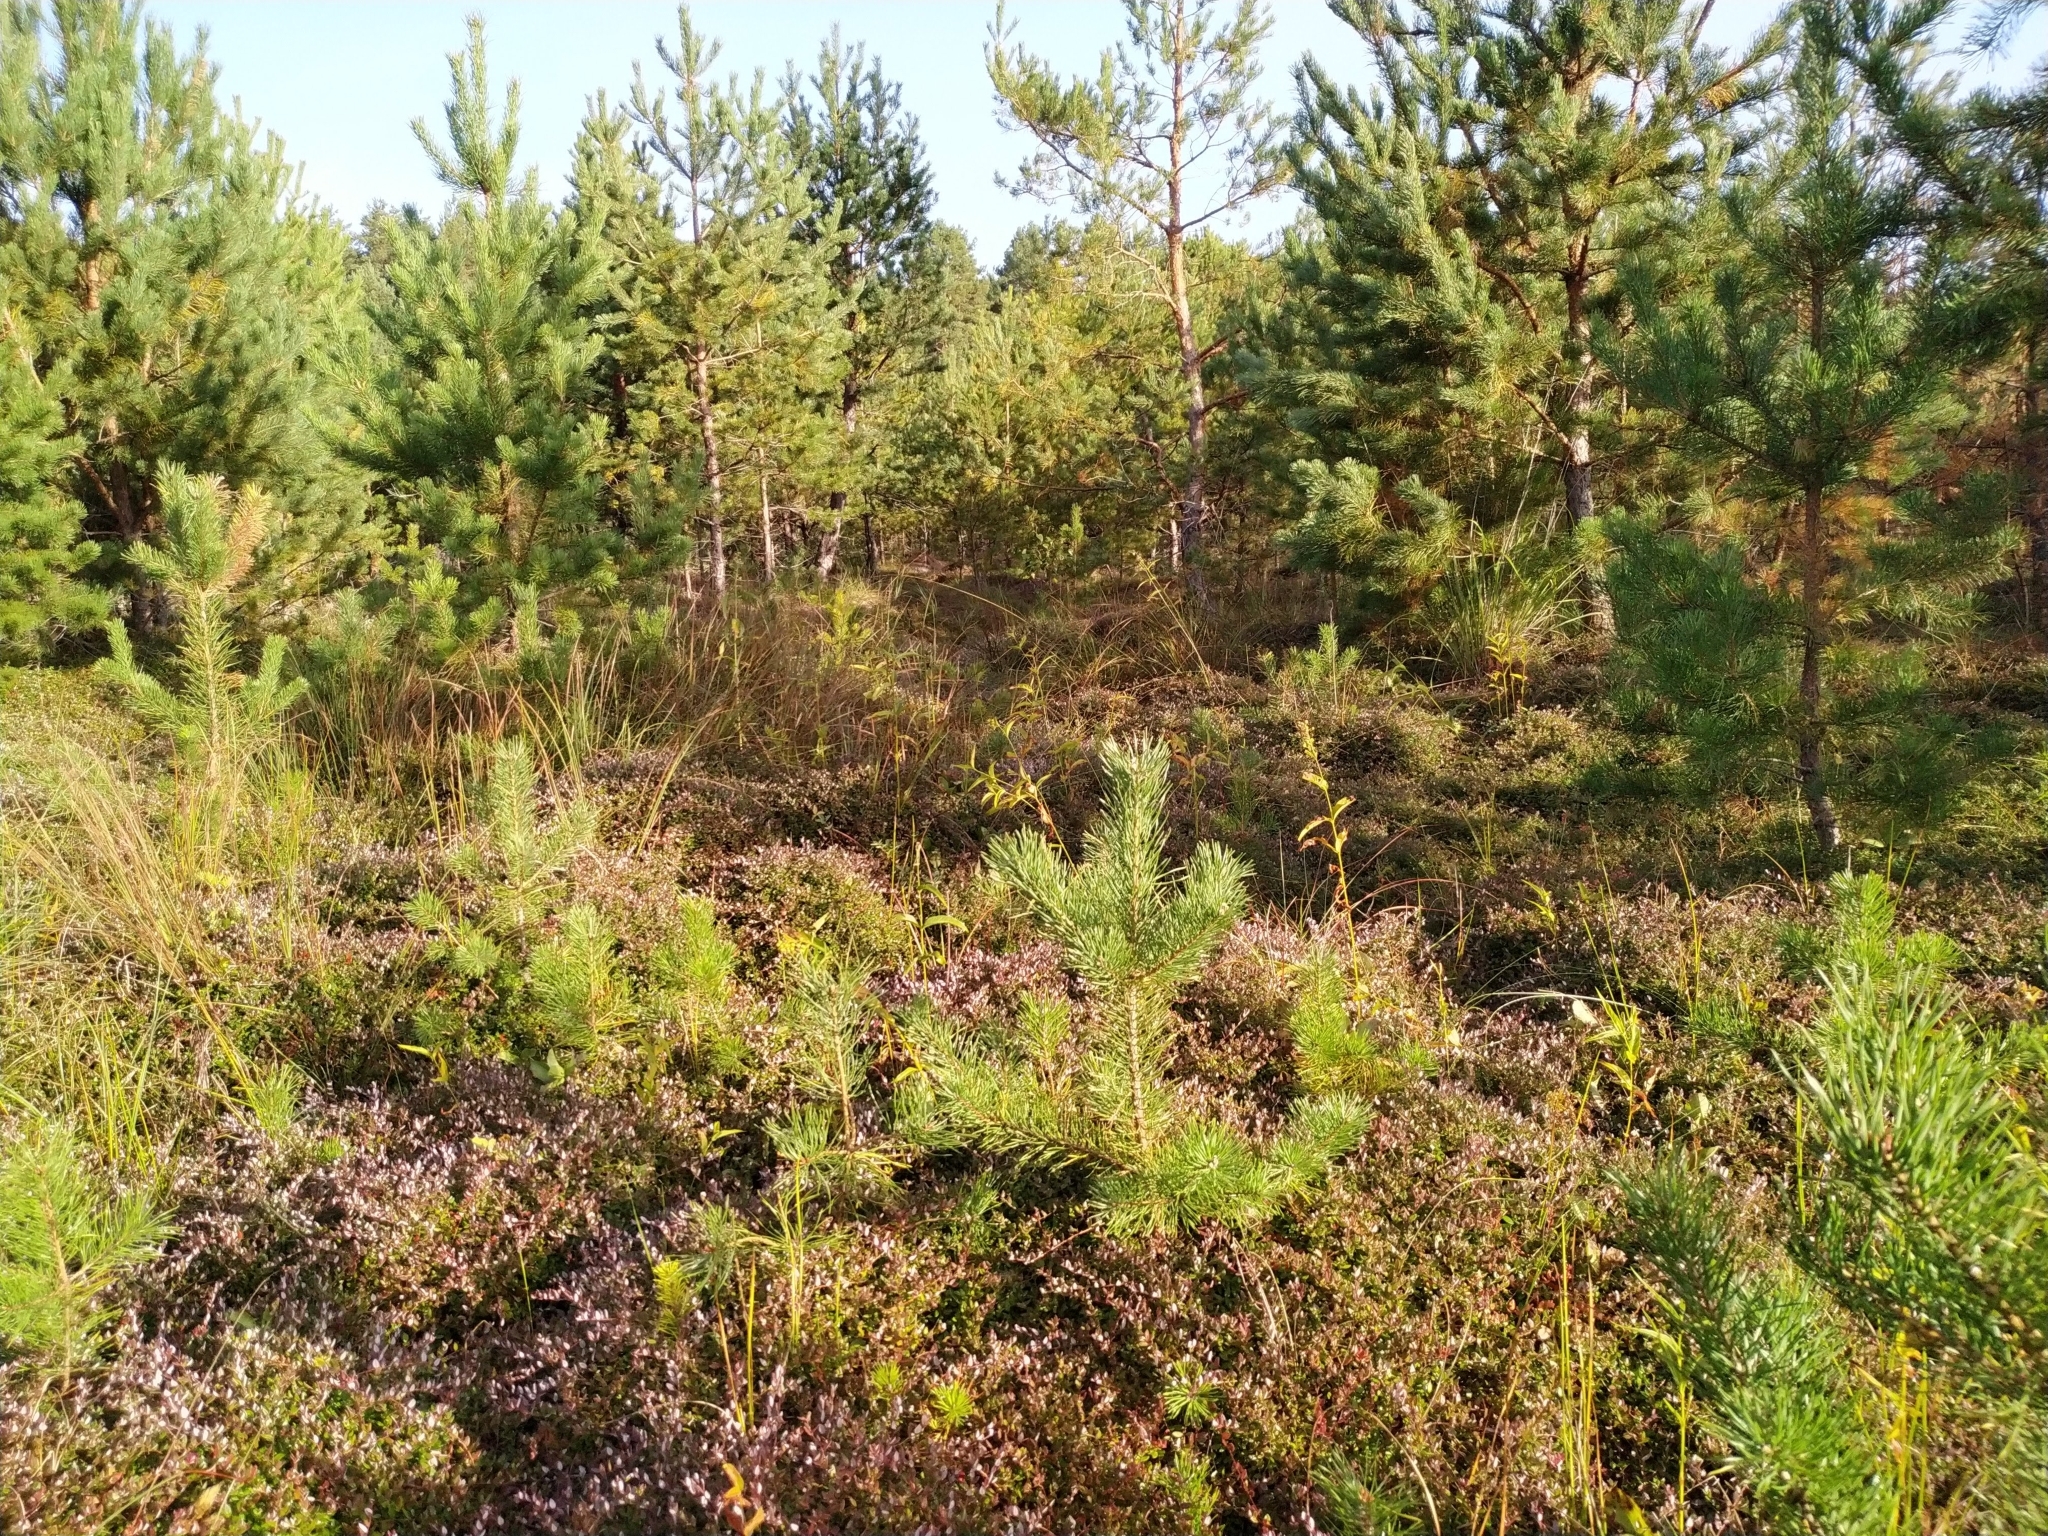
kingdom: Plantae
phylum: Tracheophyta
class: Pinopsida
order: Pinales
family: Pinaceae
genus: Pinus
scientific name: Pinus sylvestris
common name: Scots pine
